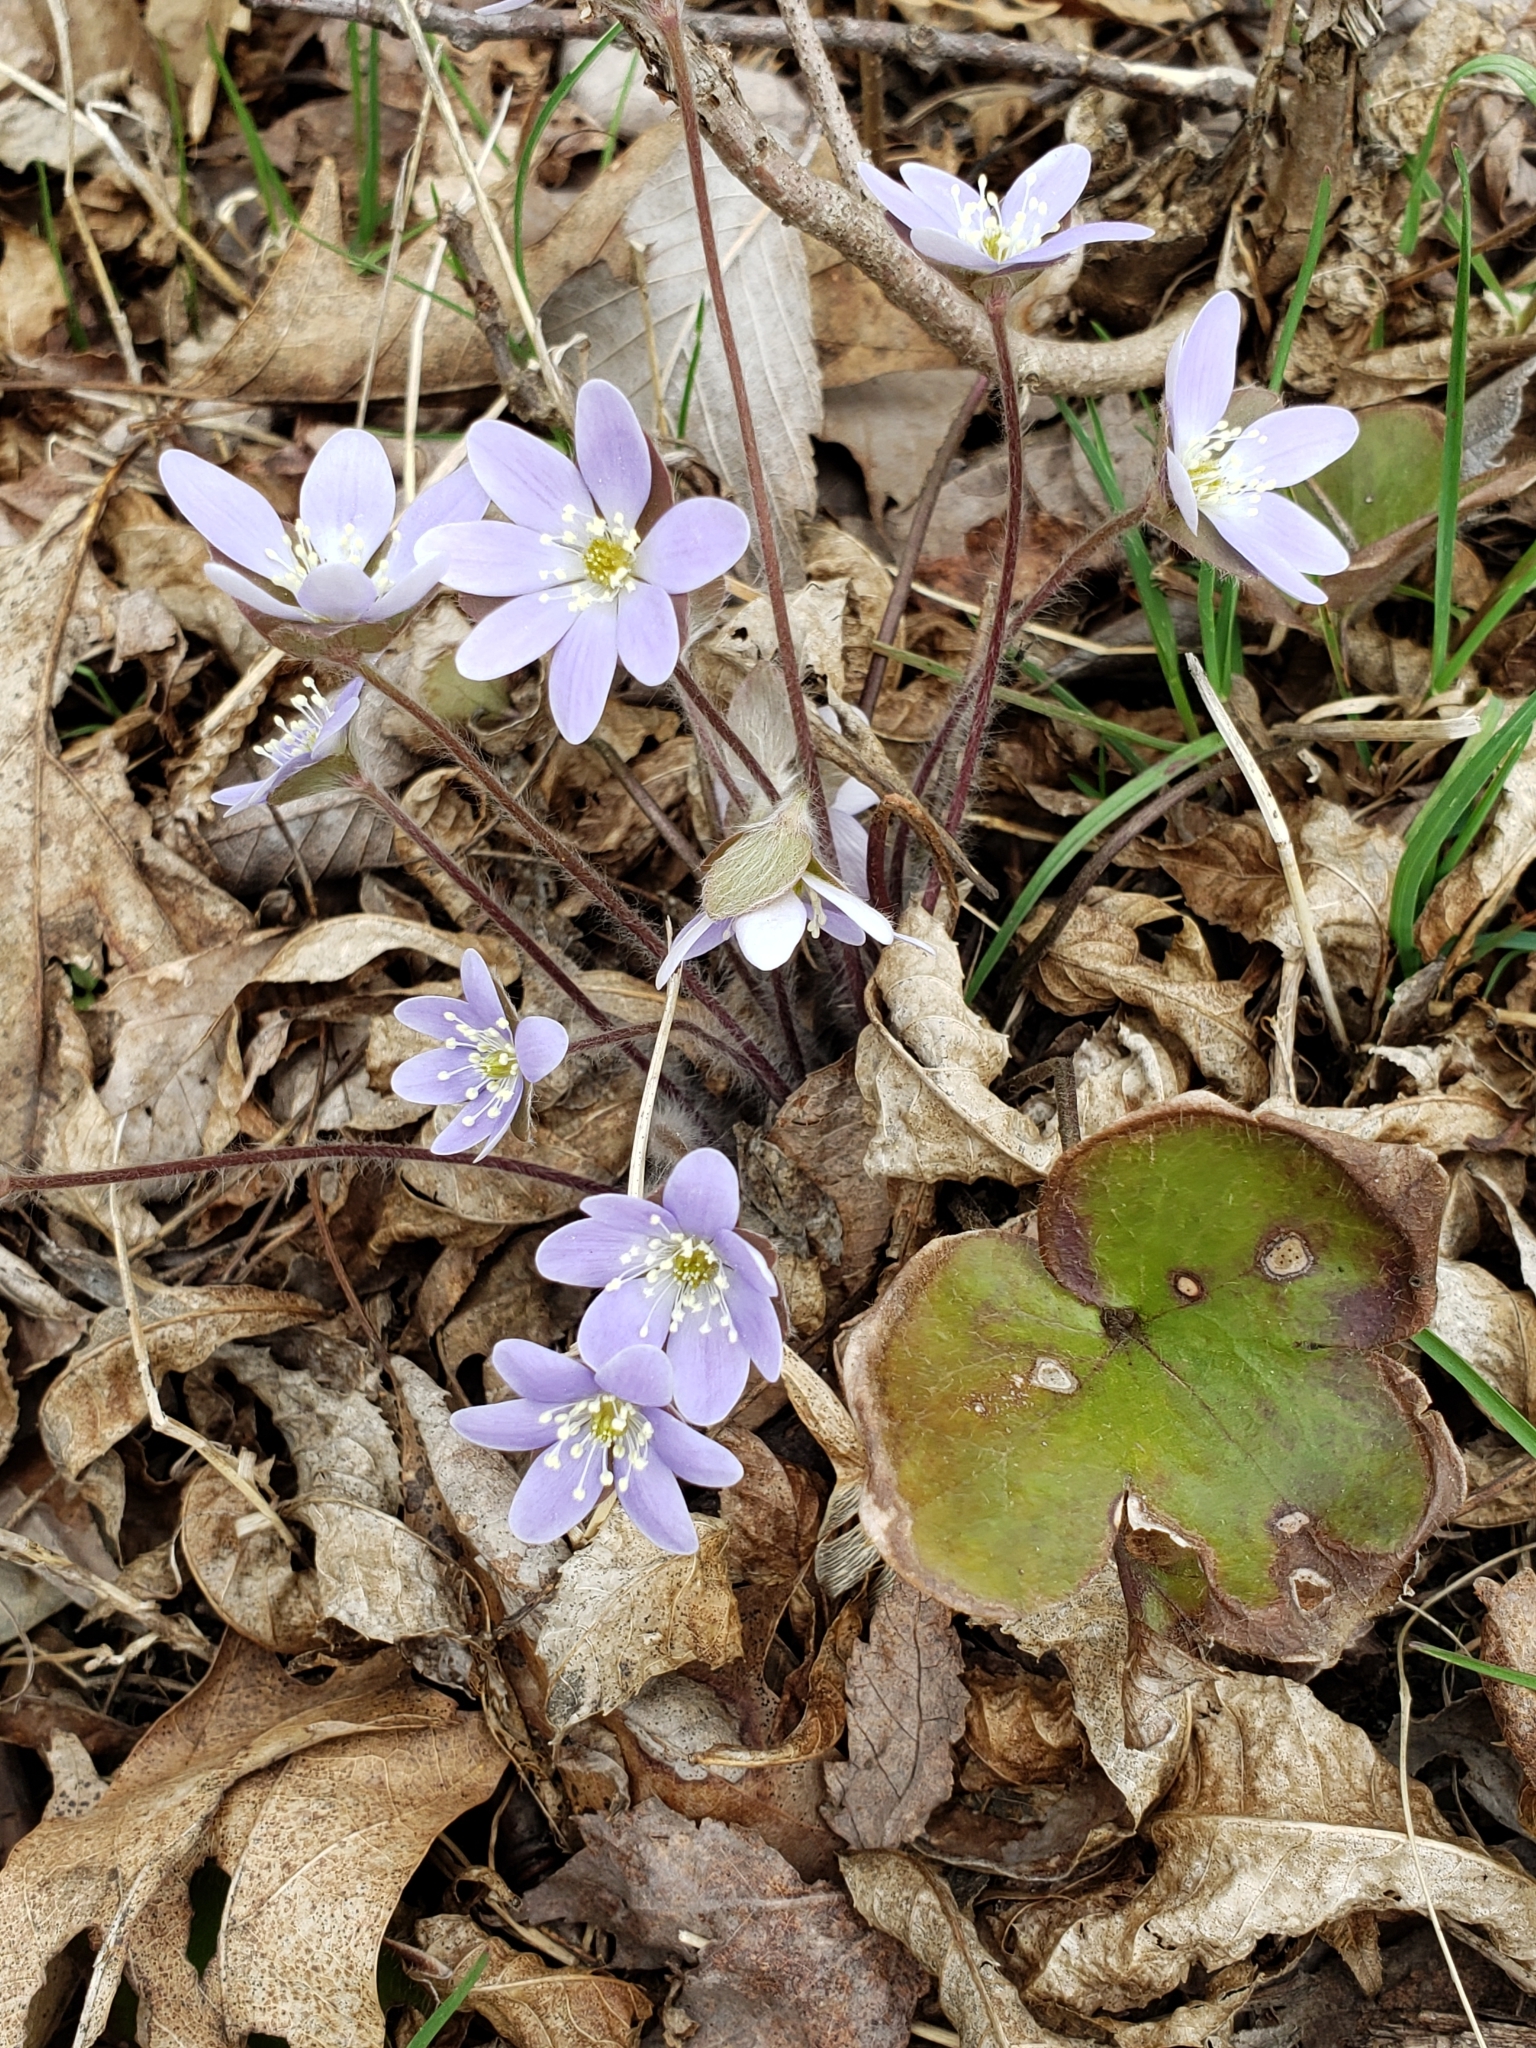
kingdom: Plantae
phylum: Tracheophyta
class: Magnoliopsida
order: Ranunculales
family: Ranunculaceae
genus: Hepatica
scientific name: Hepatica americana
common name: American hepatica
